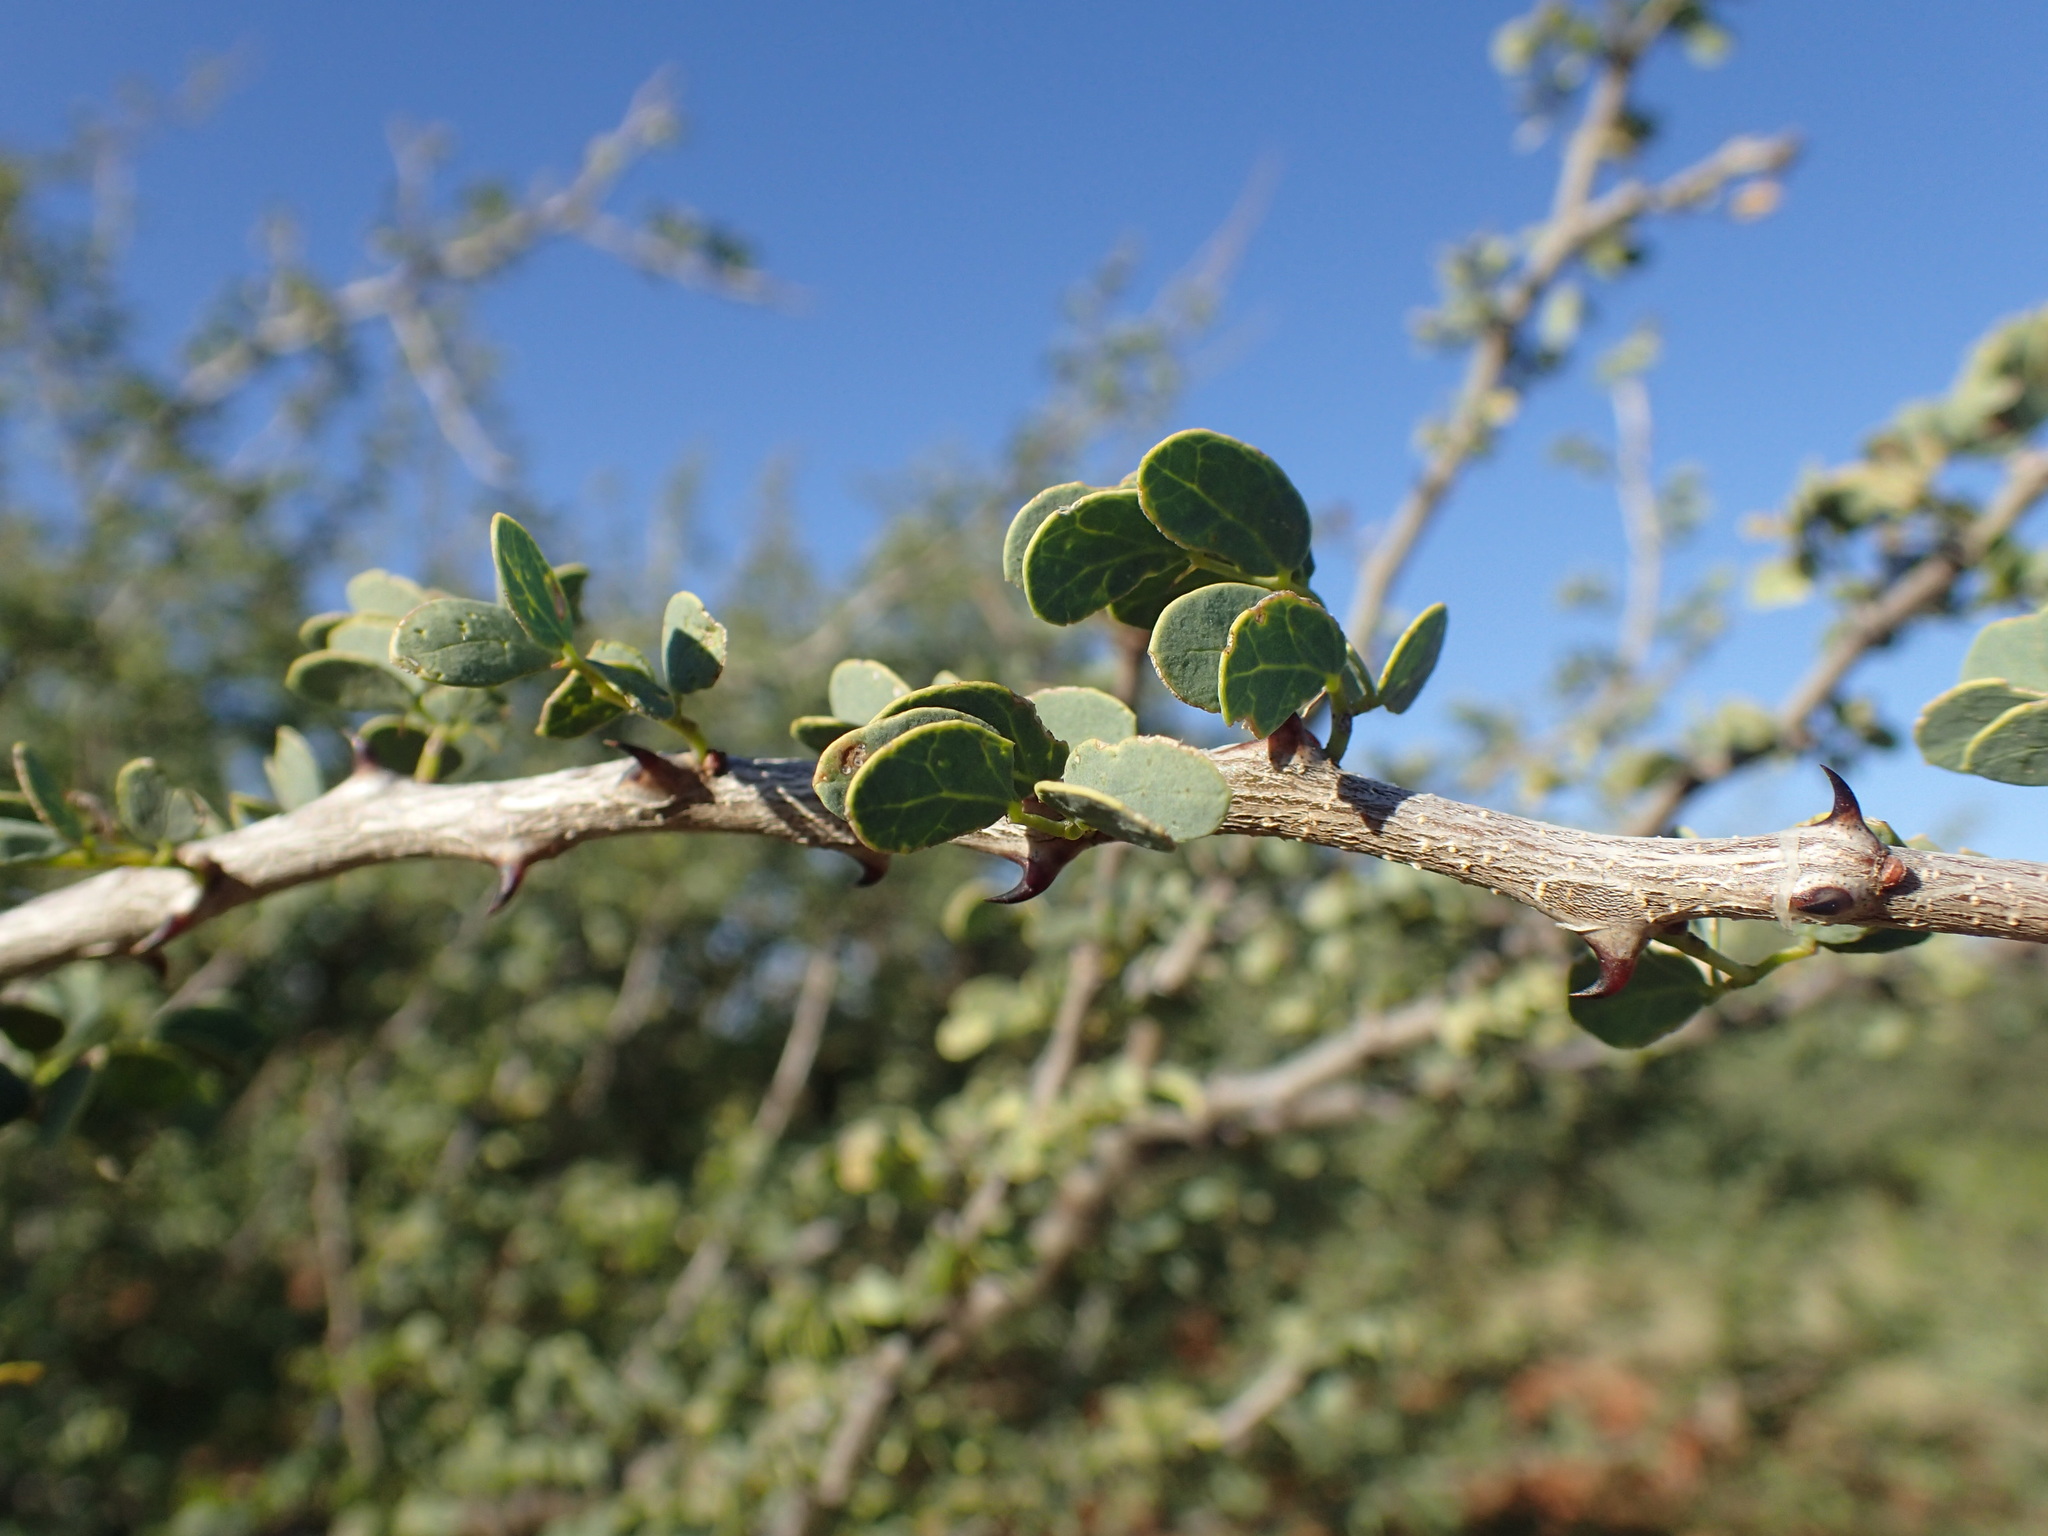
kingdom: Plantae
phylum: Tracheophyta
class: Magnoliopsida
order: Fabales
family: Fabaceae
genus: Senegalia
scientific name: Senegalia mellifera
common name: Hookthorn
